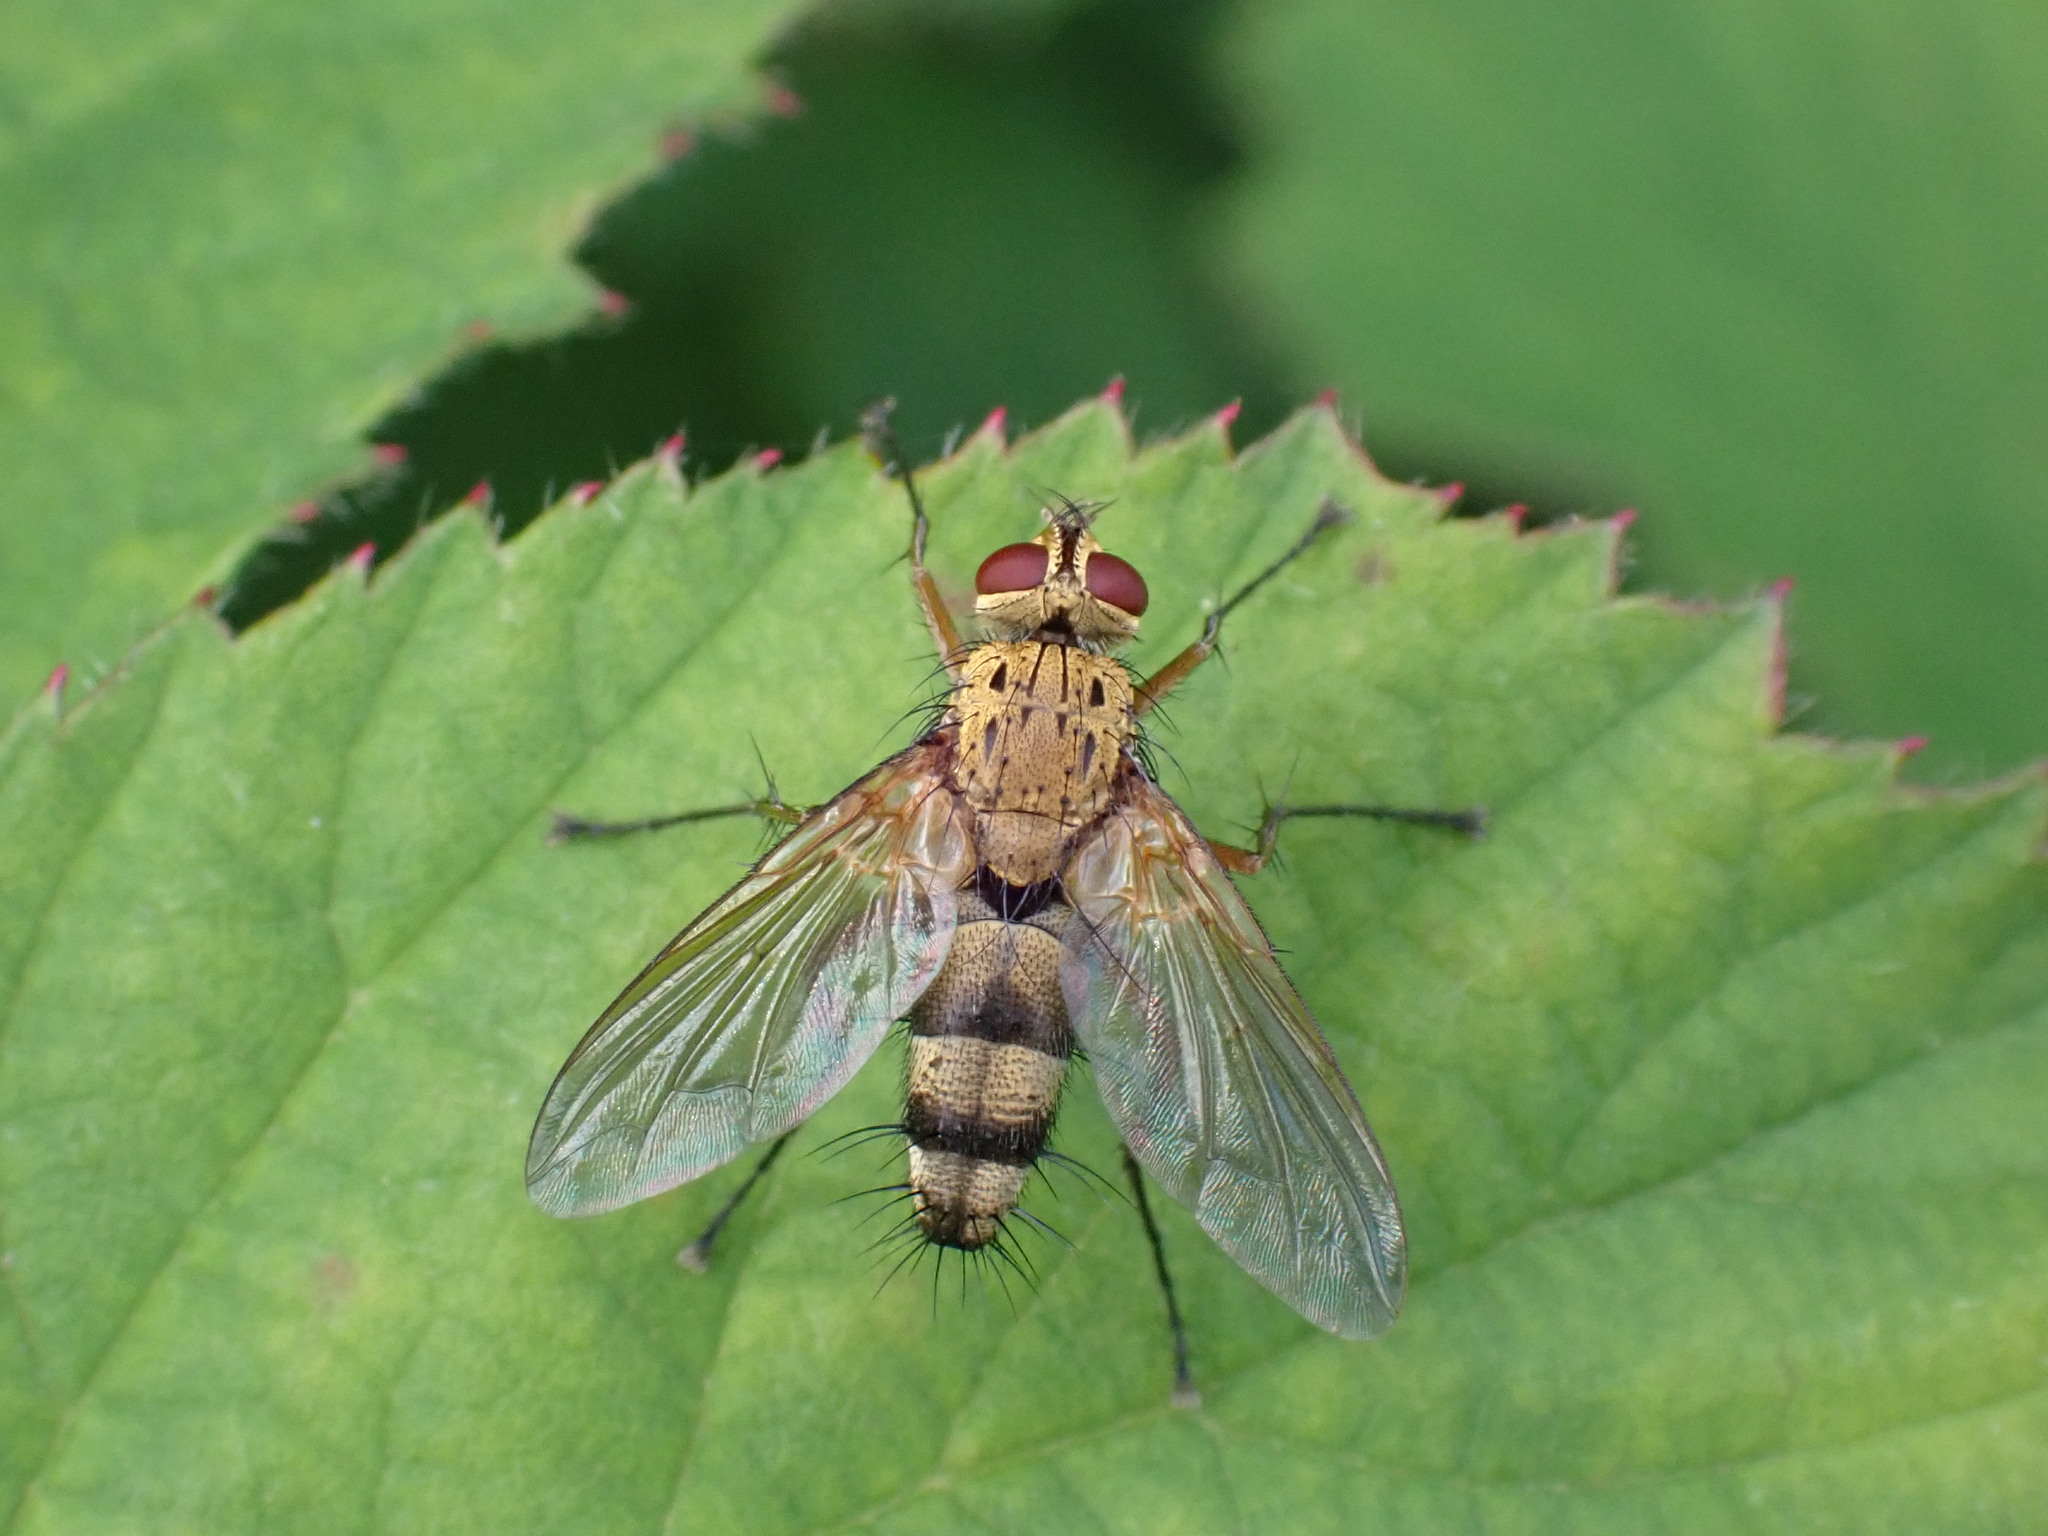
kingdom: Animalia
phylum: Arthropoda
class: Insecta
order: Diptera
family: Tachinidae
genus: Dexiosoma
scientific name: Dexiosoma caninum
